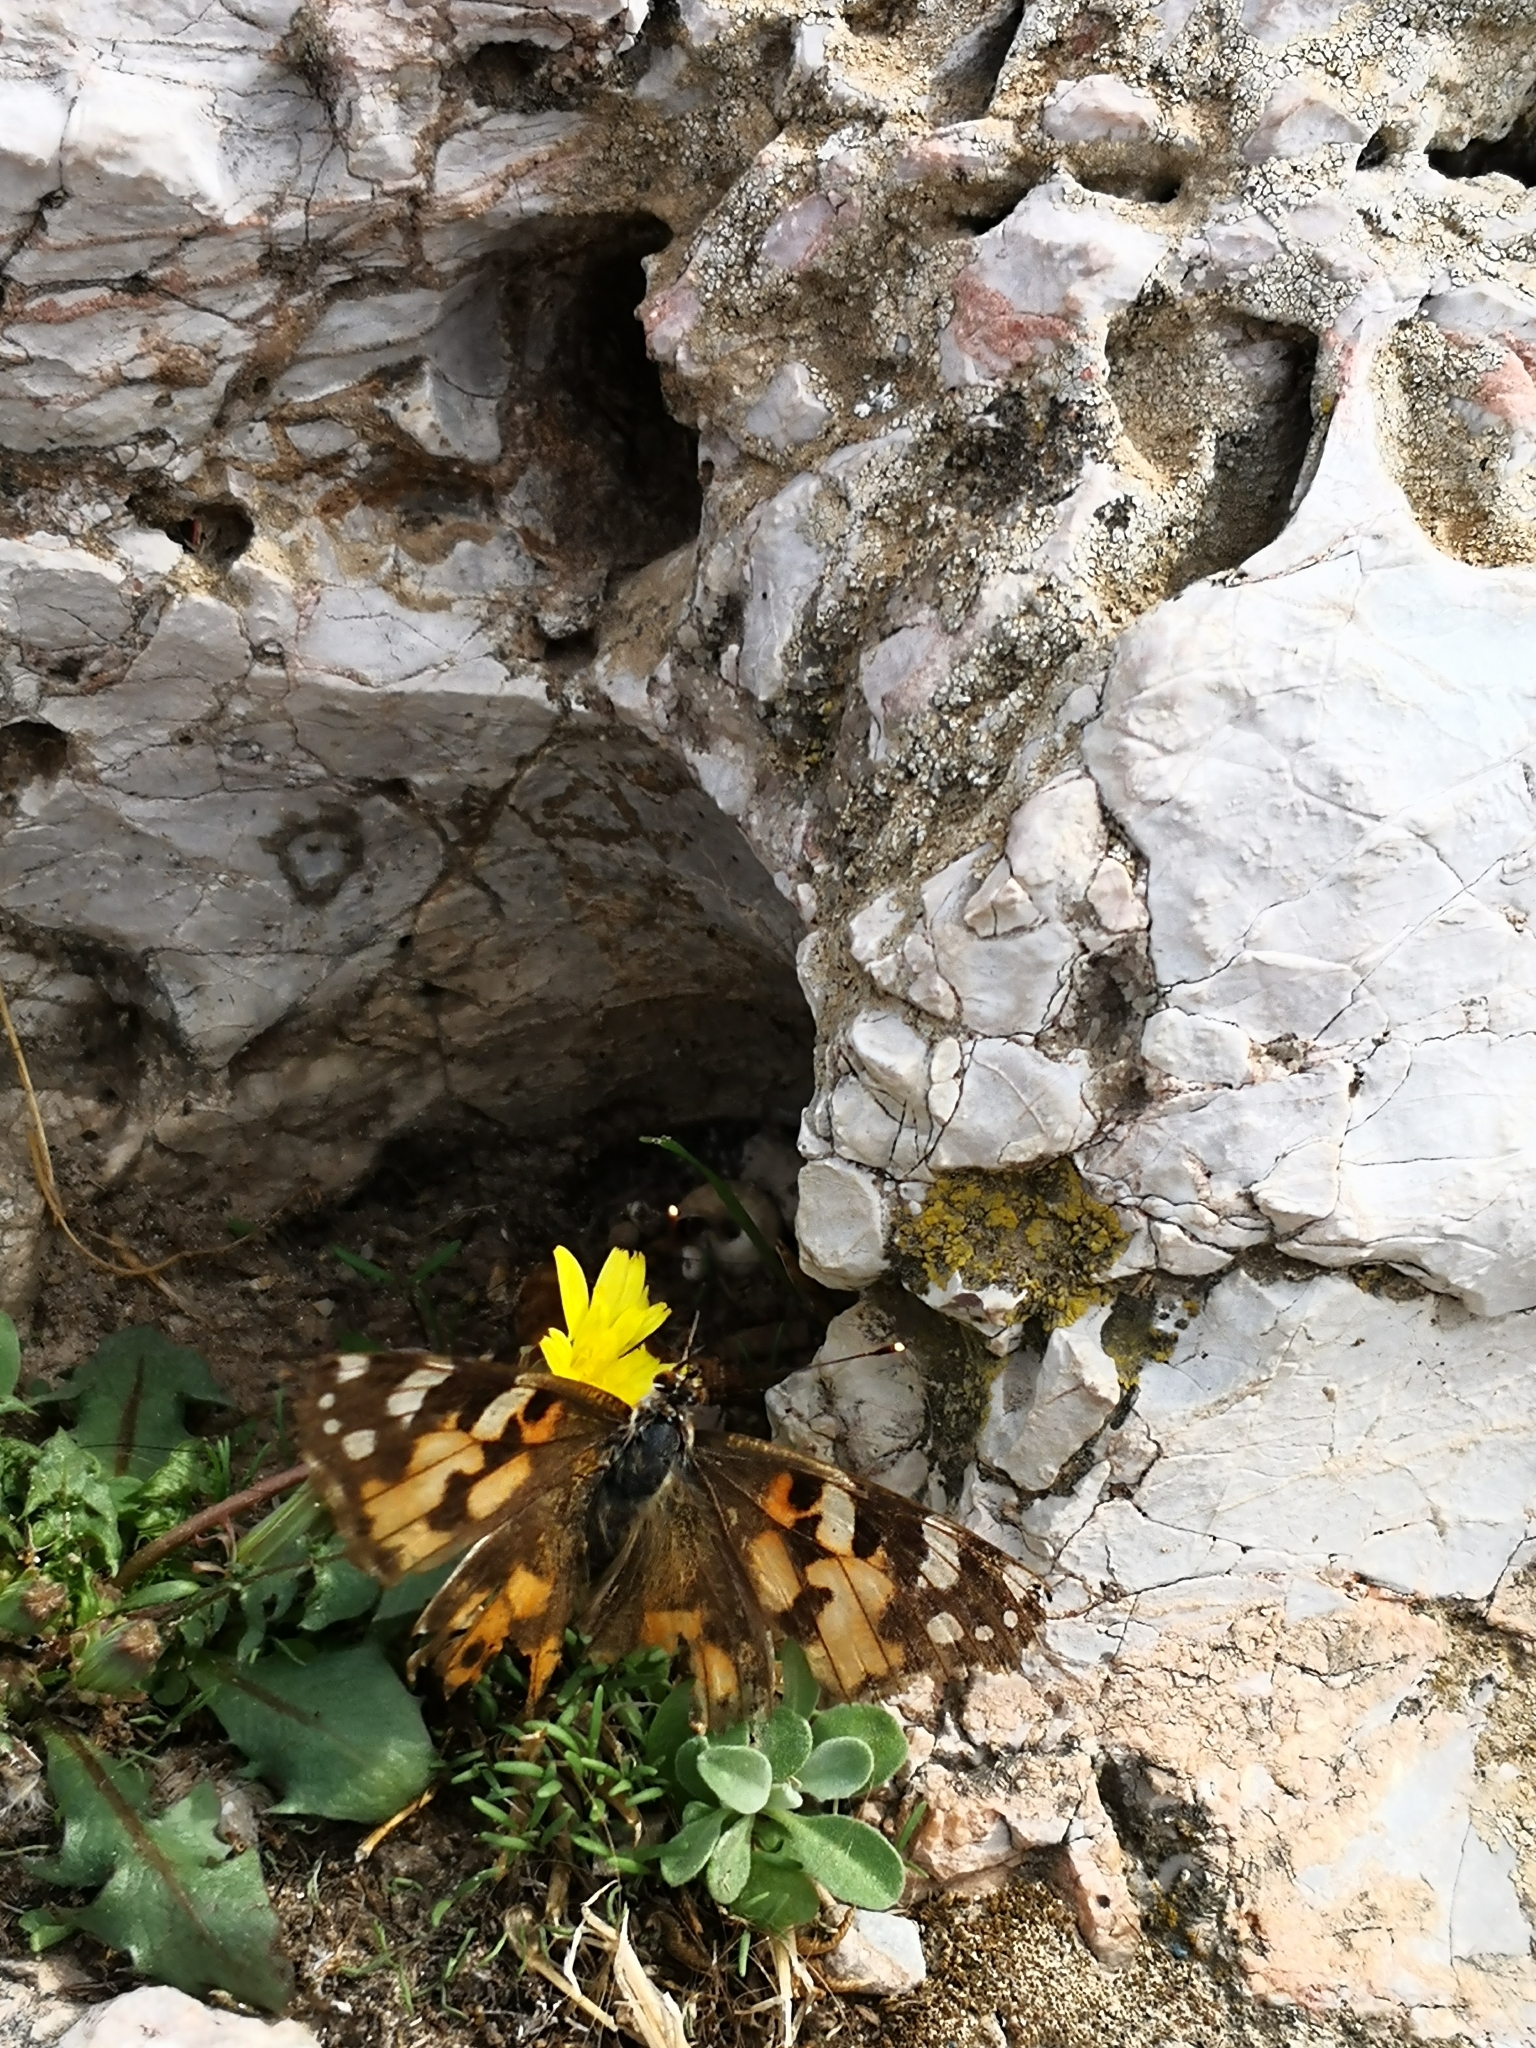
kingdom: Animalia
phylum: Arthropoda
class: Insecta
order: Lepidoptera
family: Nymphalidae
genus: Vanessa
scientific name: Vanessa cardui
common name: Painted lady
